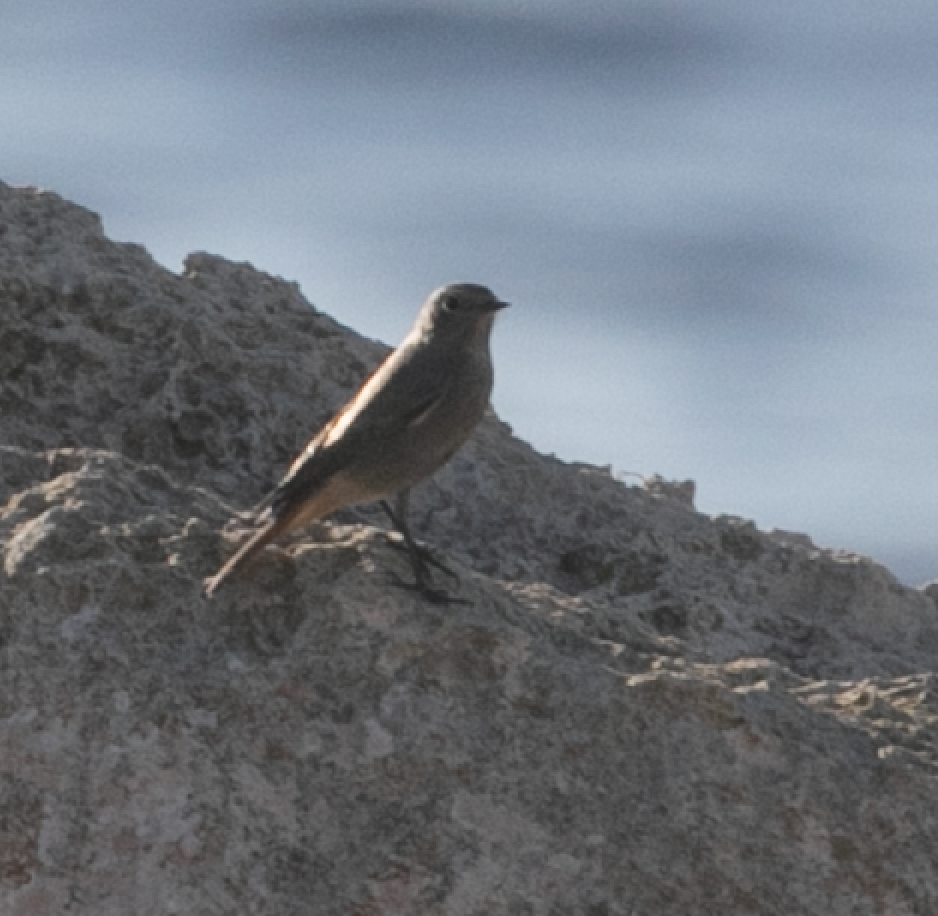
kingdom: Animalia
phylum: Chordata
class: Aves
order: Passeriformes
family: Muscicapidae
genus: Phoenicurus
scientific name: Phoenicurus ochruros
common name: Black redstart
